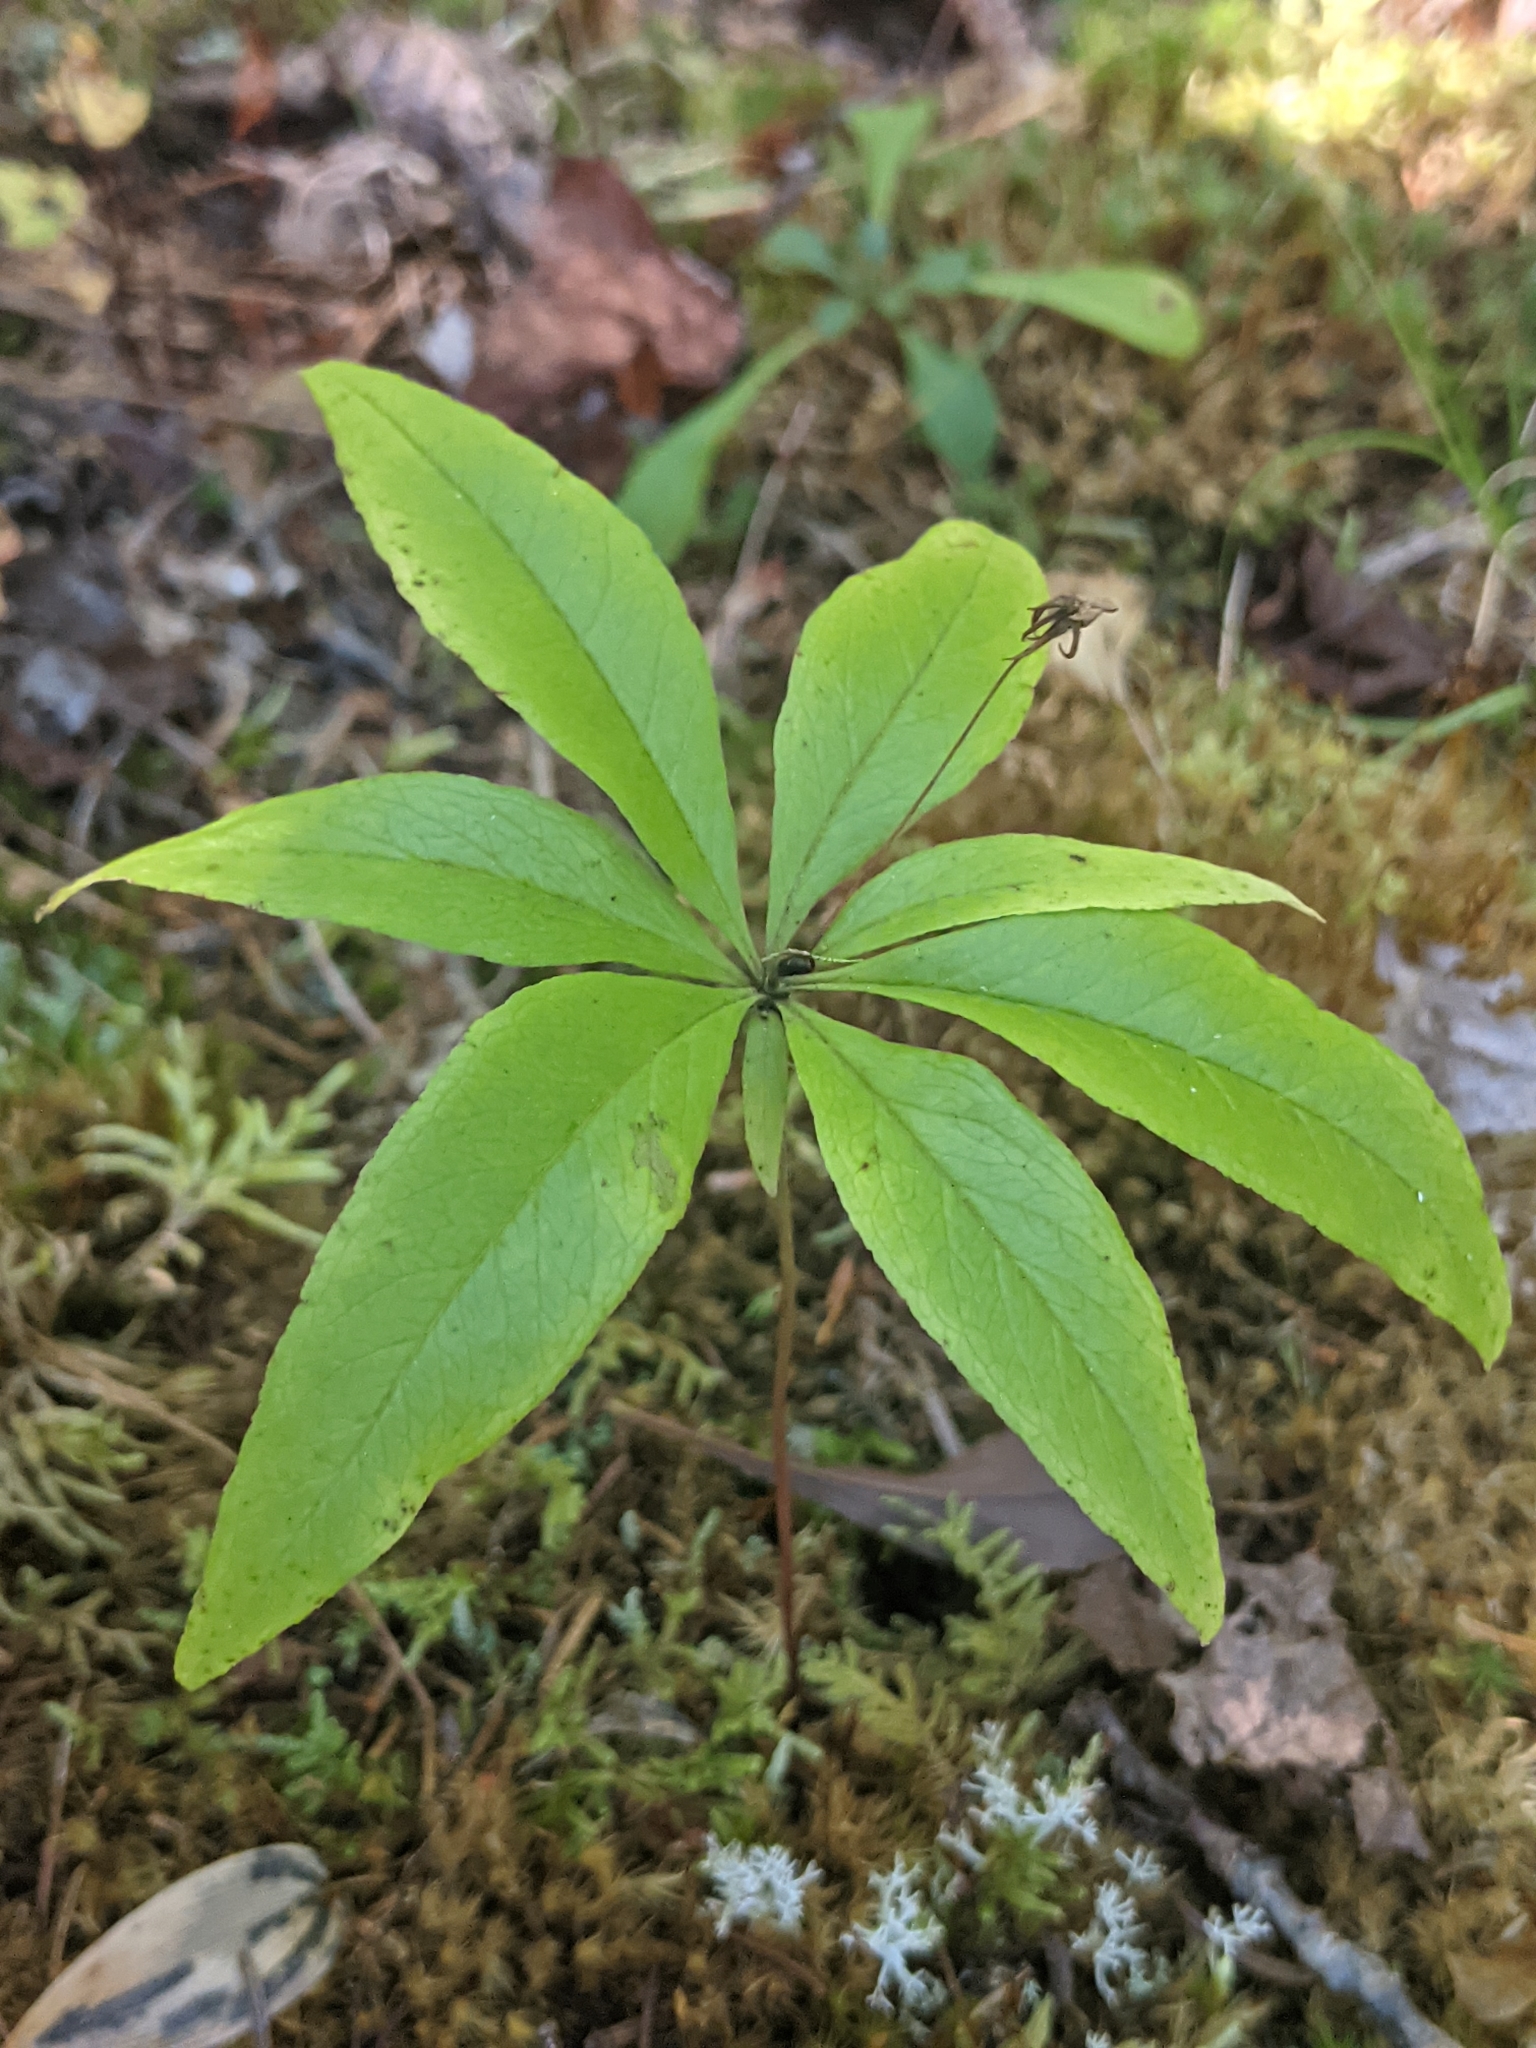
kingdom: Plantae
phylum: Tracheophyta
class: Magnoliopsida
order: Ericales
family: Primulaceae
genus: Lysimachia
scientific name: Lysimachia borealis
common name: American starflower
